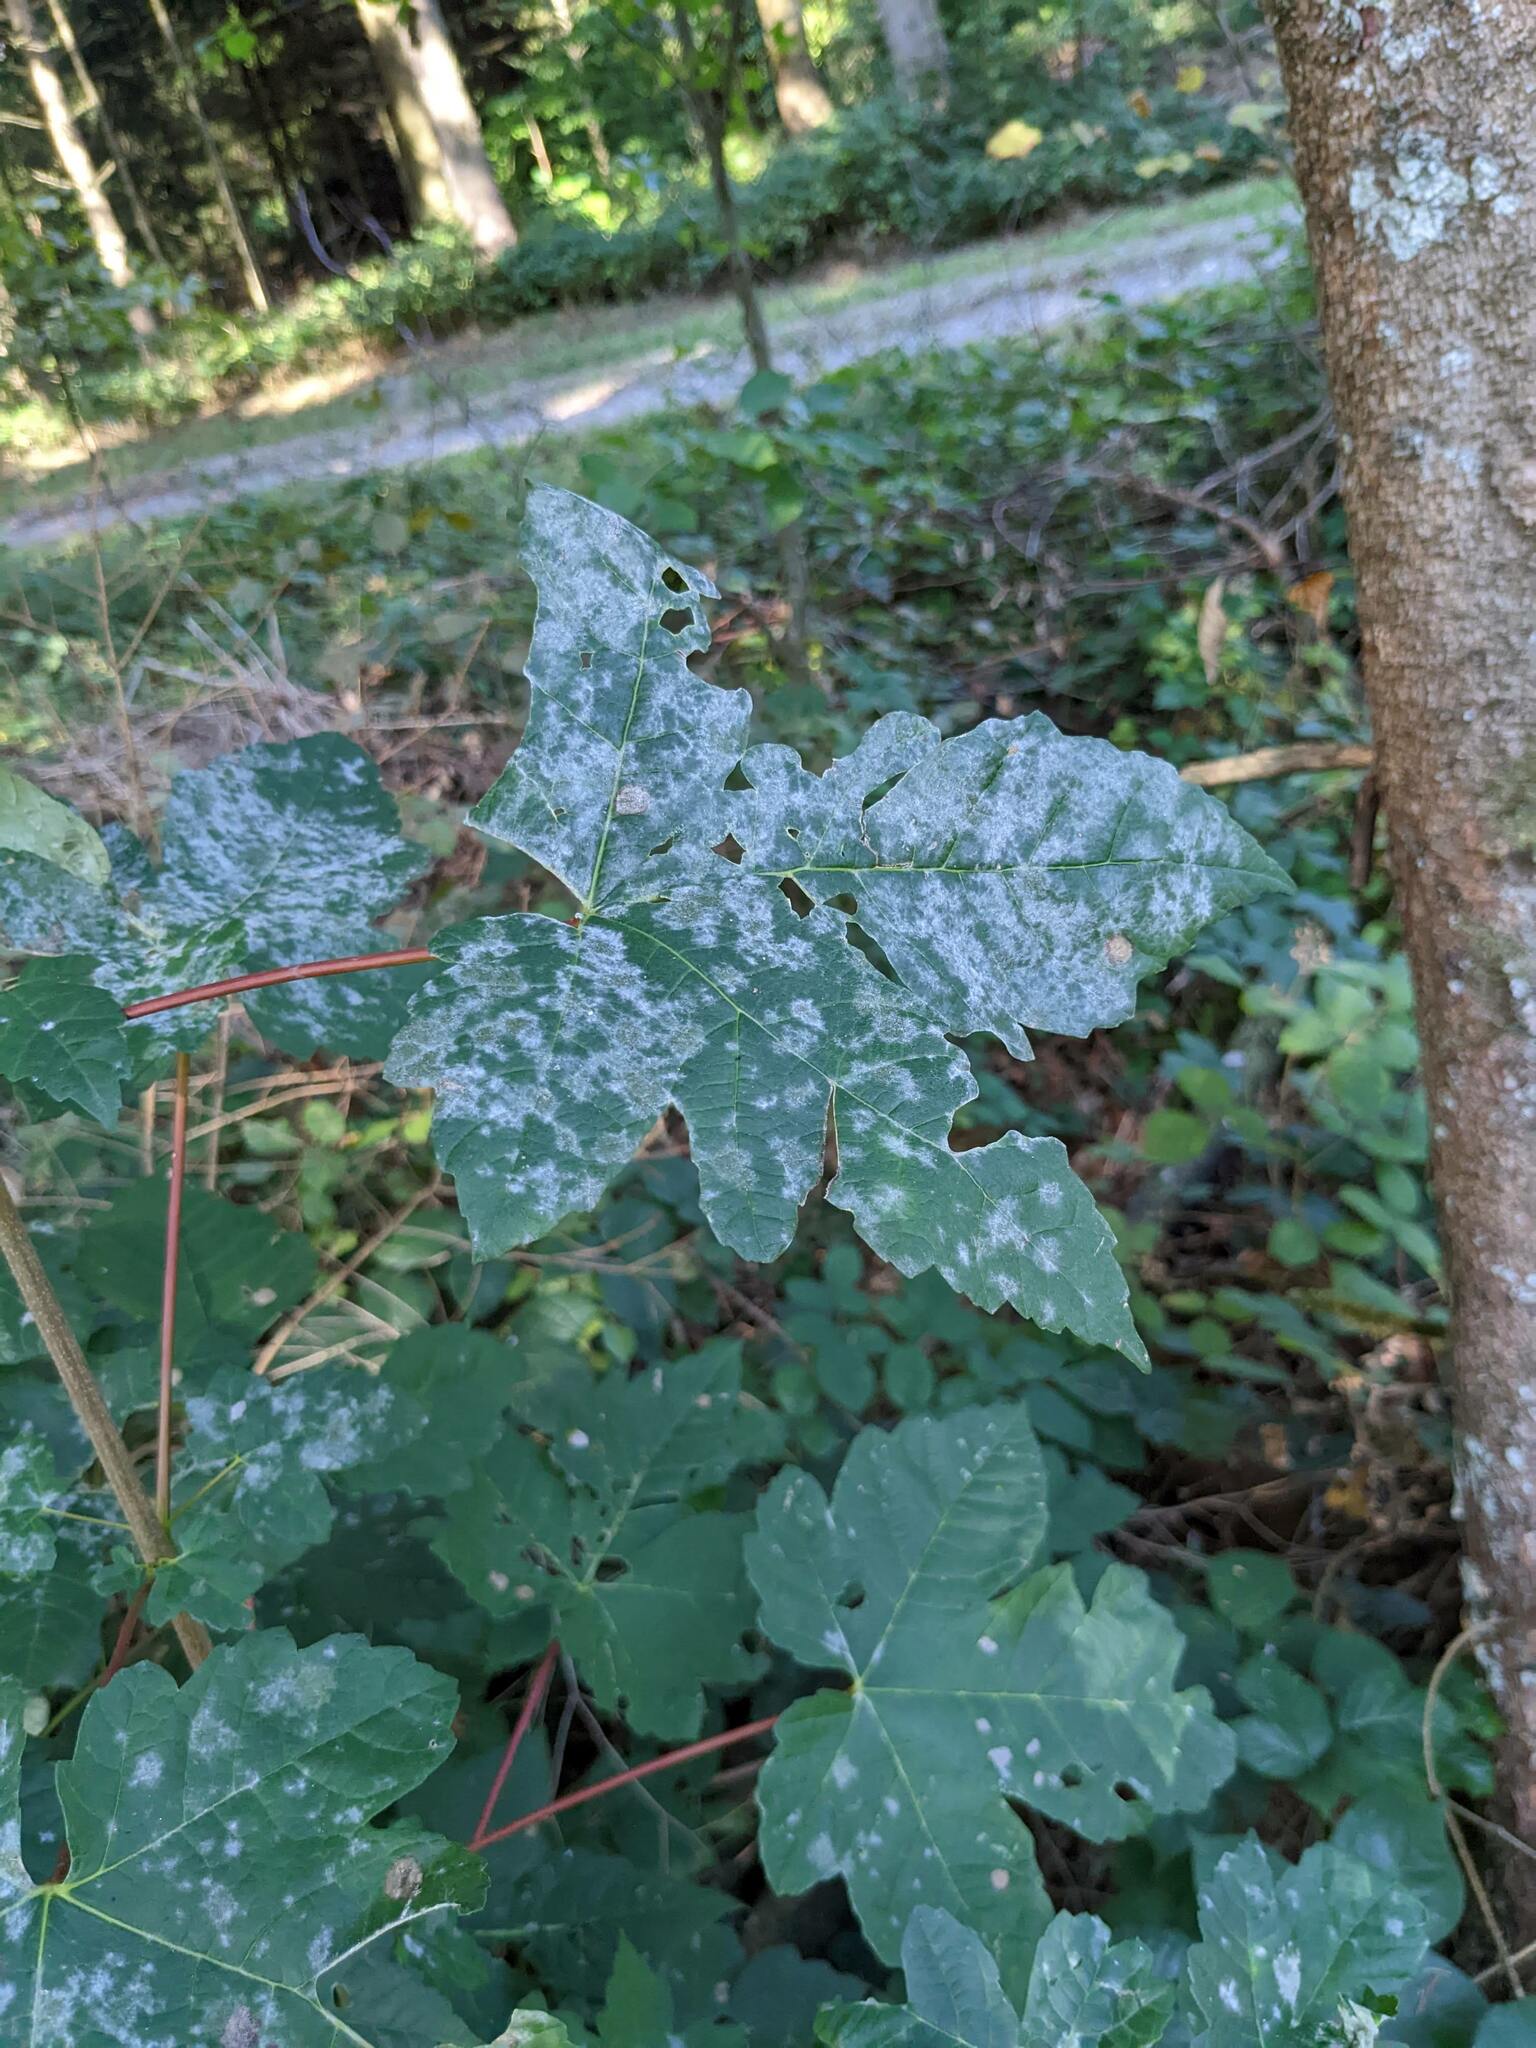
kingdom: Fungi
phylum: Ascomycota
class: Leotiomycetes
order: Helotiales
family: Erysiphaceae
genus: Sawadaea
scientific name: Sawadaea bicornis
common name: Maple mildew
